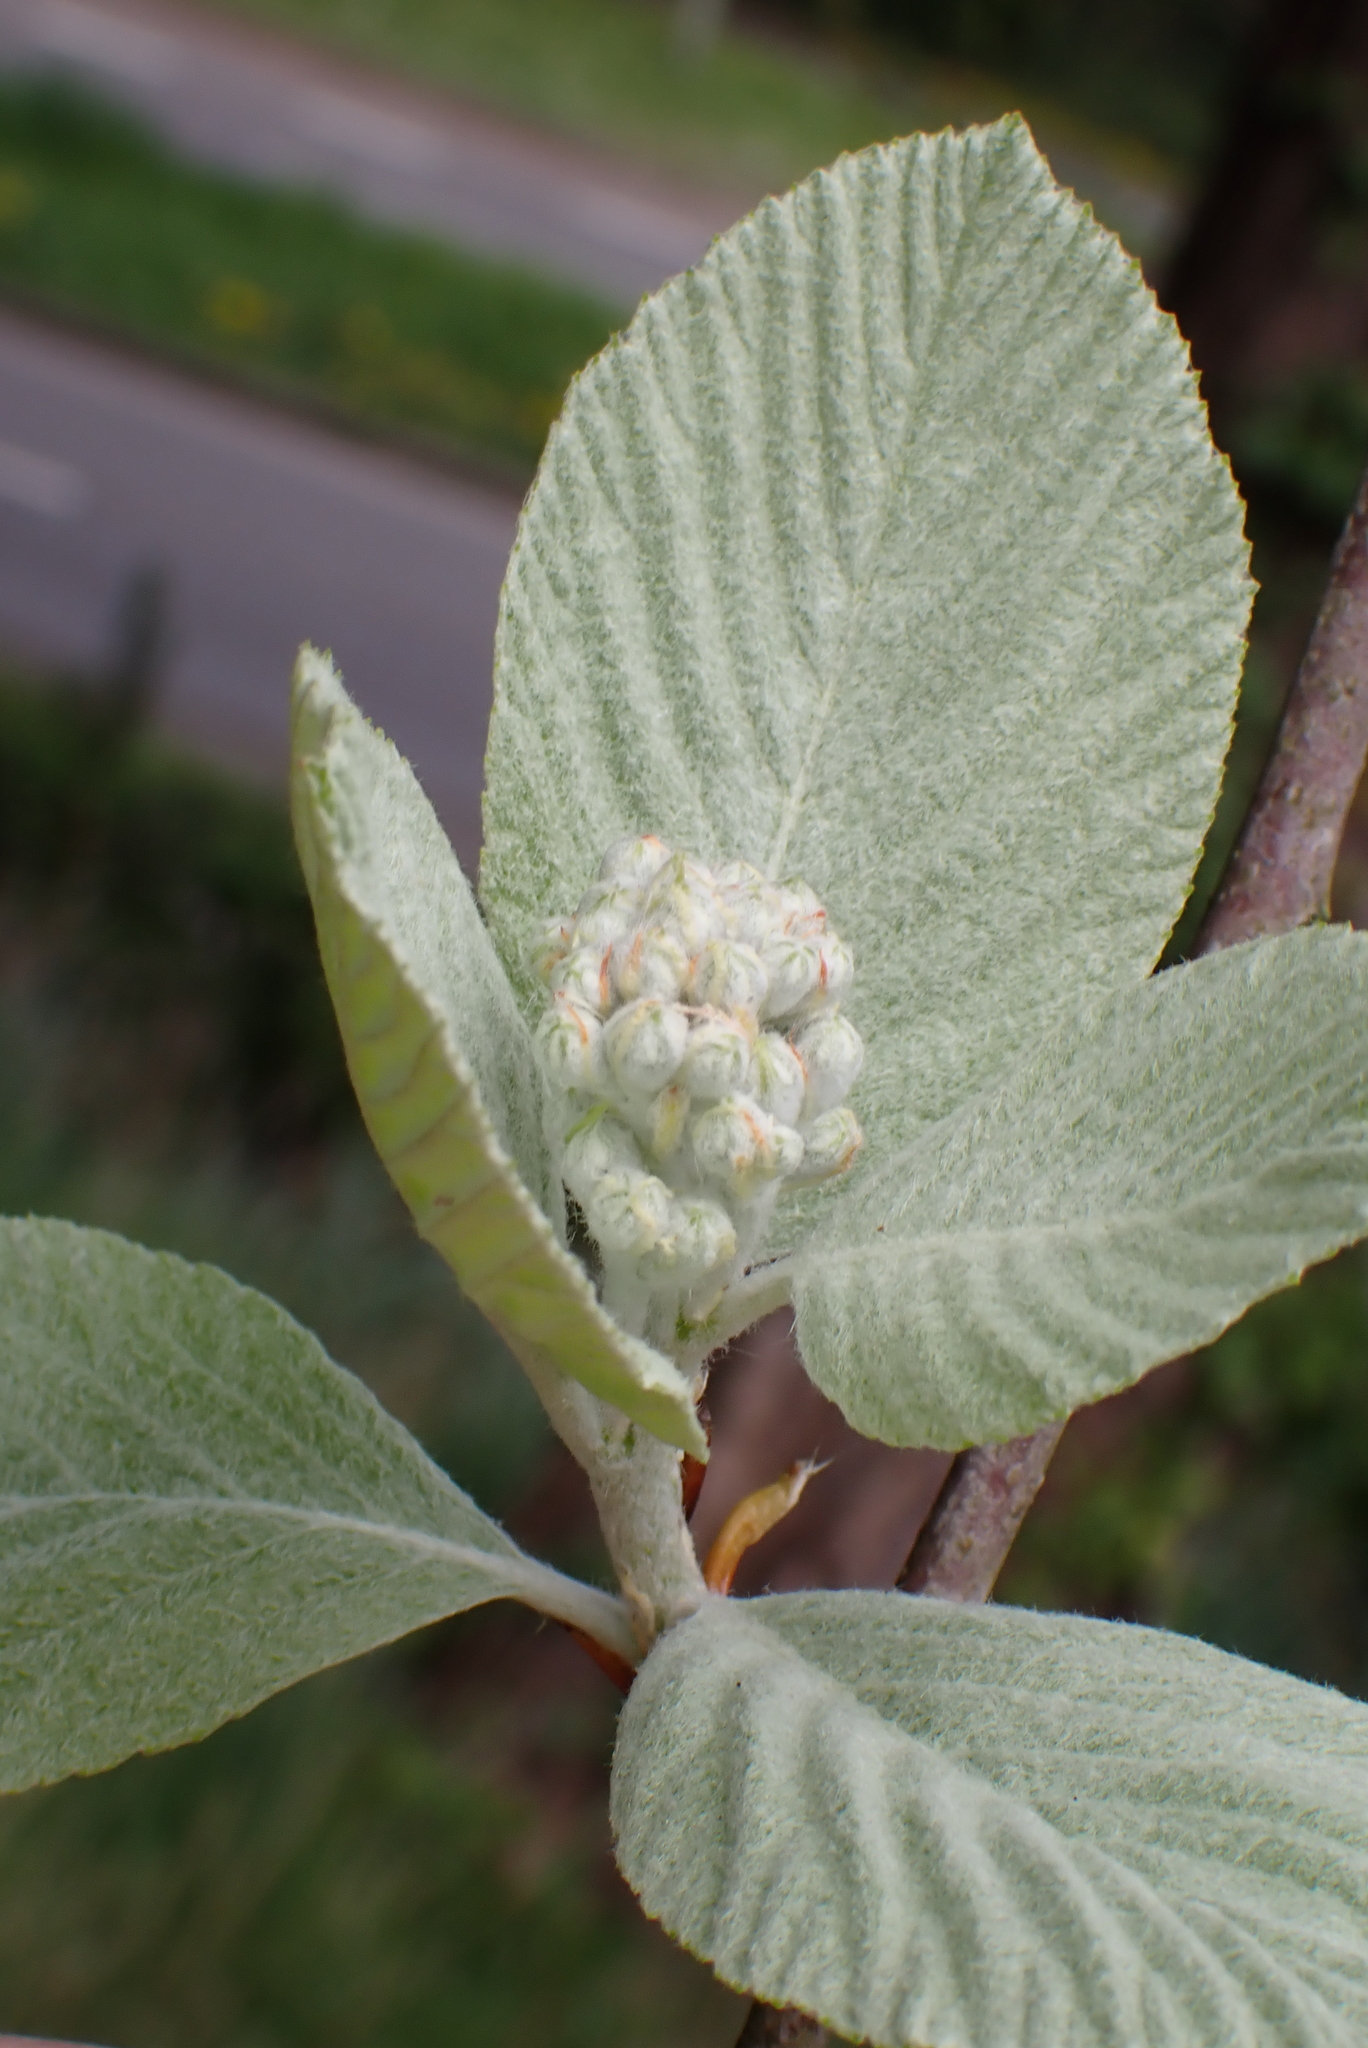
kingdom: Plantae
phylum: Tracheophyta
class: Magnoliopsida
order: Rosales
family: Rosaceae
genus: Aria
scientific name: Aria edulis
